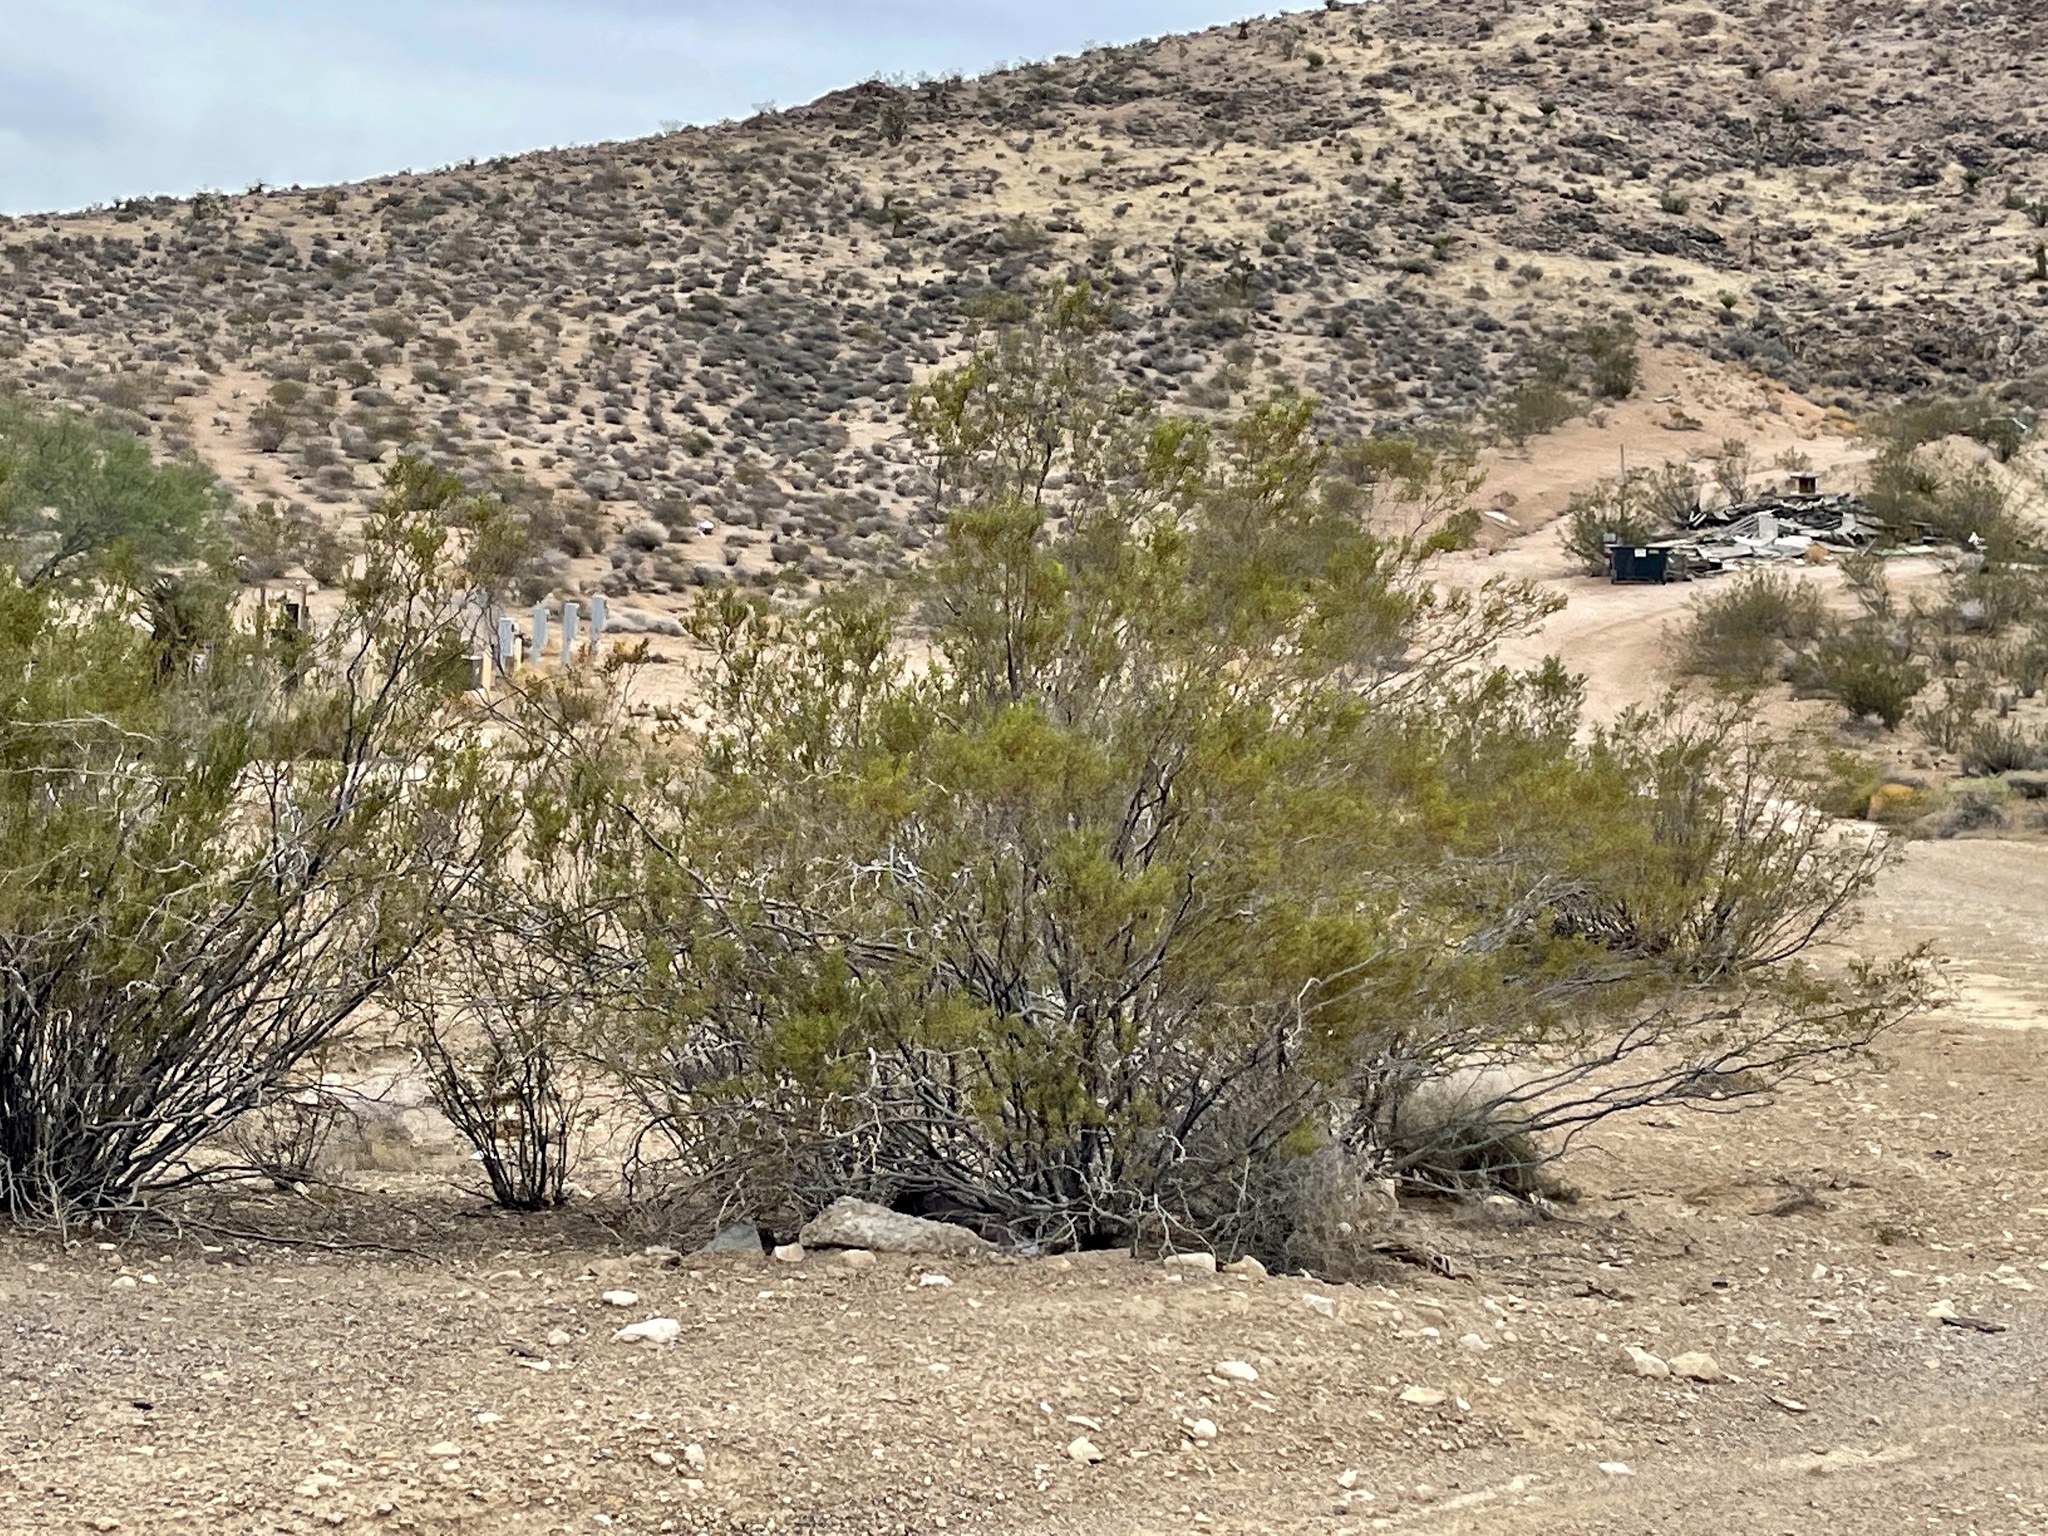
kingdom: Plantae
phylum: Tracheophyta
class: Magnoliopsida
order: Zygophyllales
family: Zygophyllaceae
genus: Larrea
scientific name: Larrea tridentata
